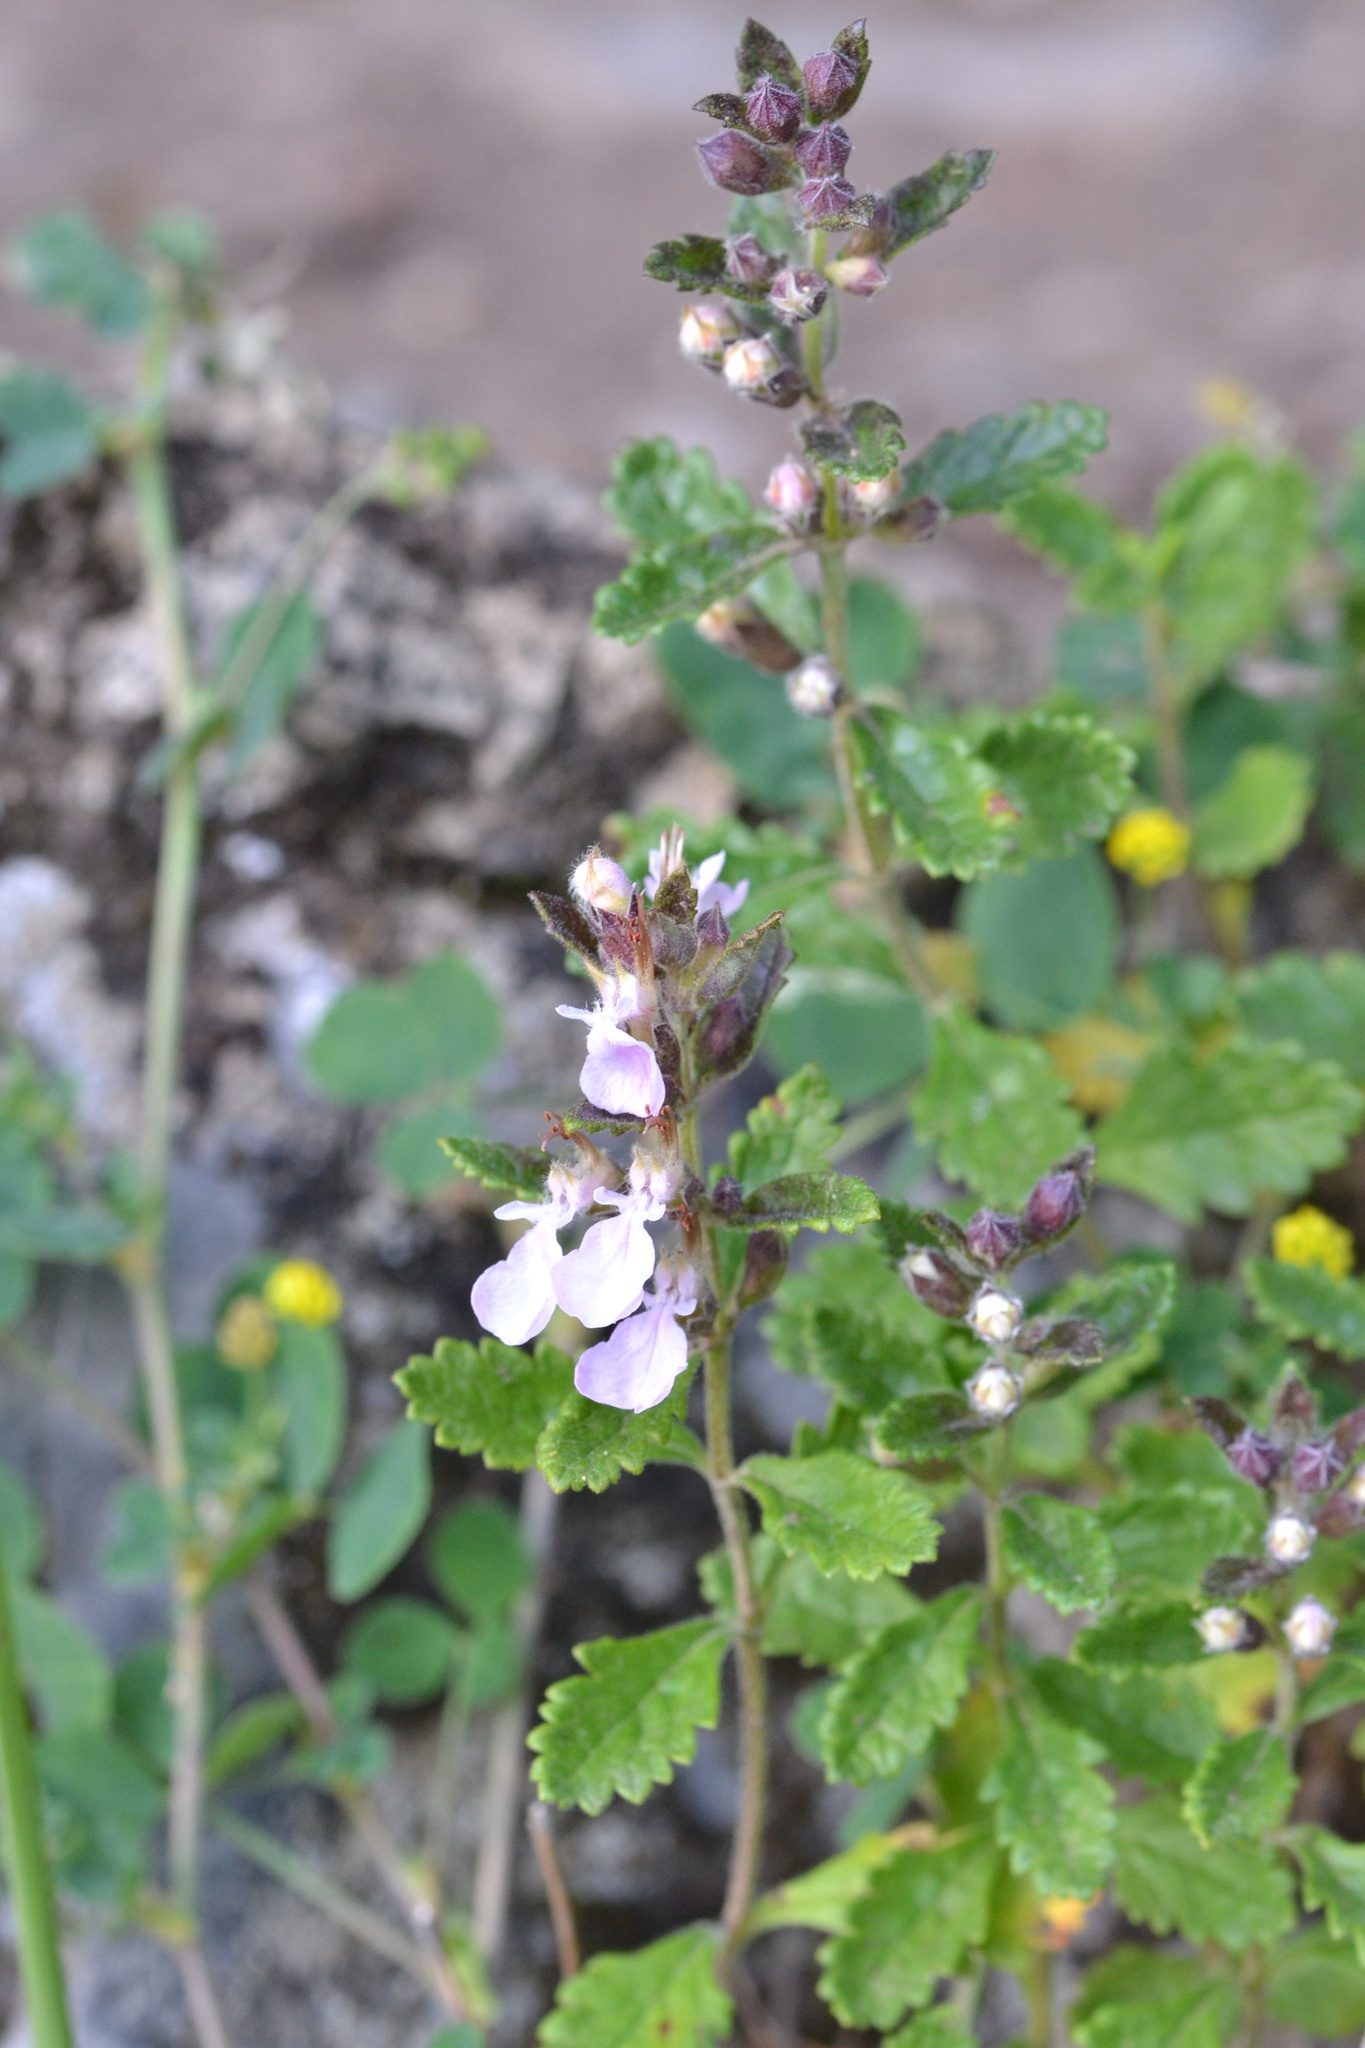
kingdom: Plantae
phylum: Tracheophyta
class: Magnoliopsida
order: Lamiales
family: Lamiaceae
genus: Teucrium
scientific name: Teucrium chamaedrys
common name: Wall germander
